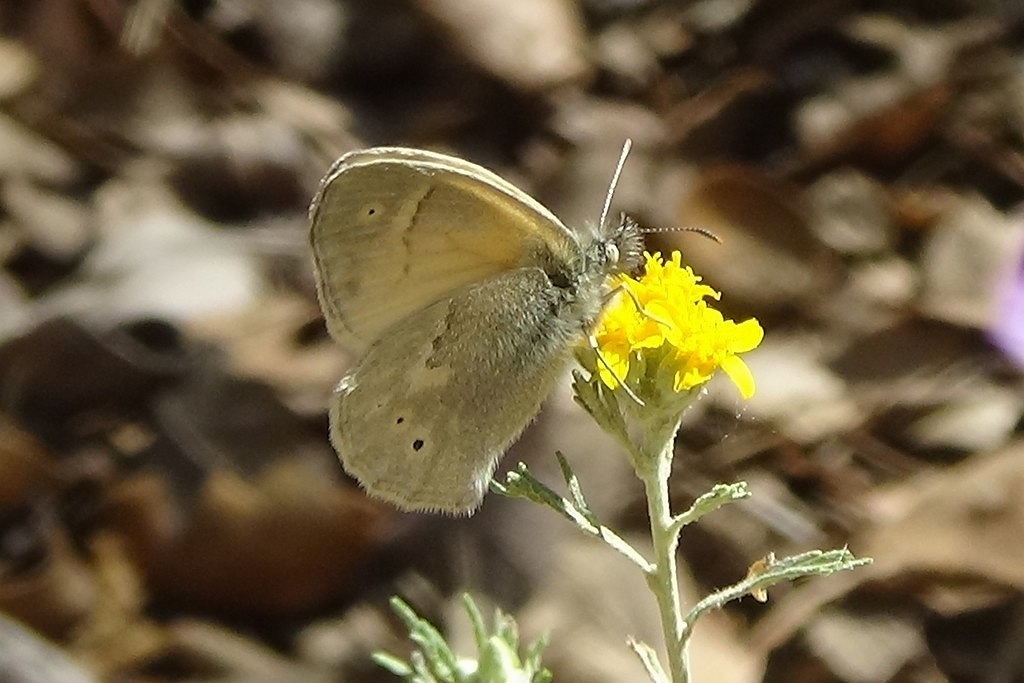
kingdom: Animalia
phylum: Arthropoda
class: Insecta
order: Lepidoptera
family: Nymphalidae
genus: Coenonympha
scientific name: Coenonympha california
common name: Common ringlet
